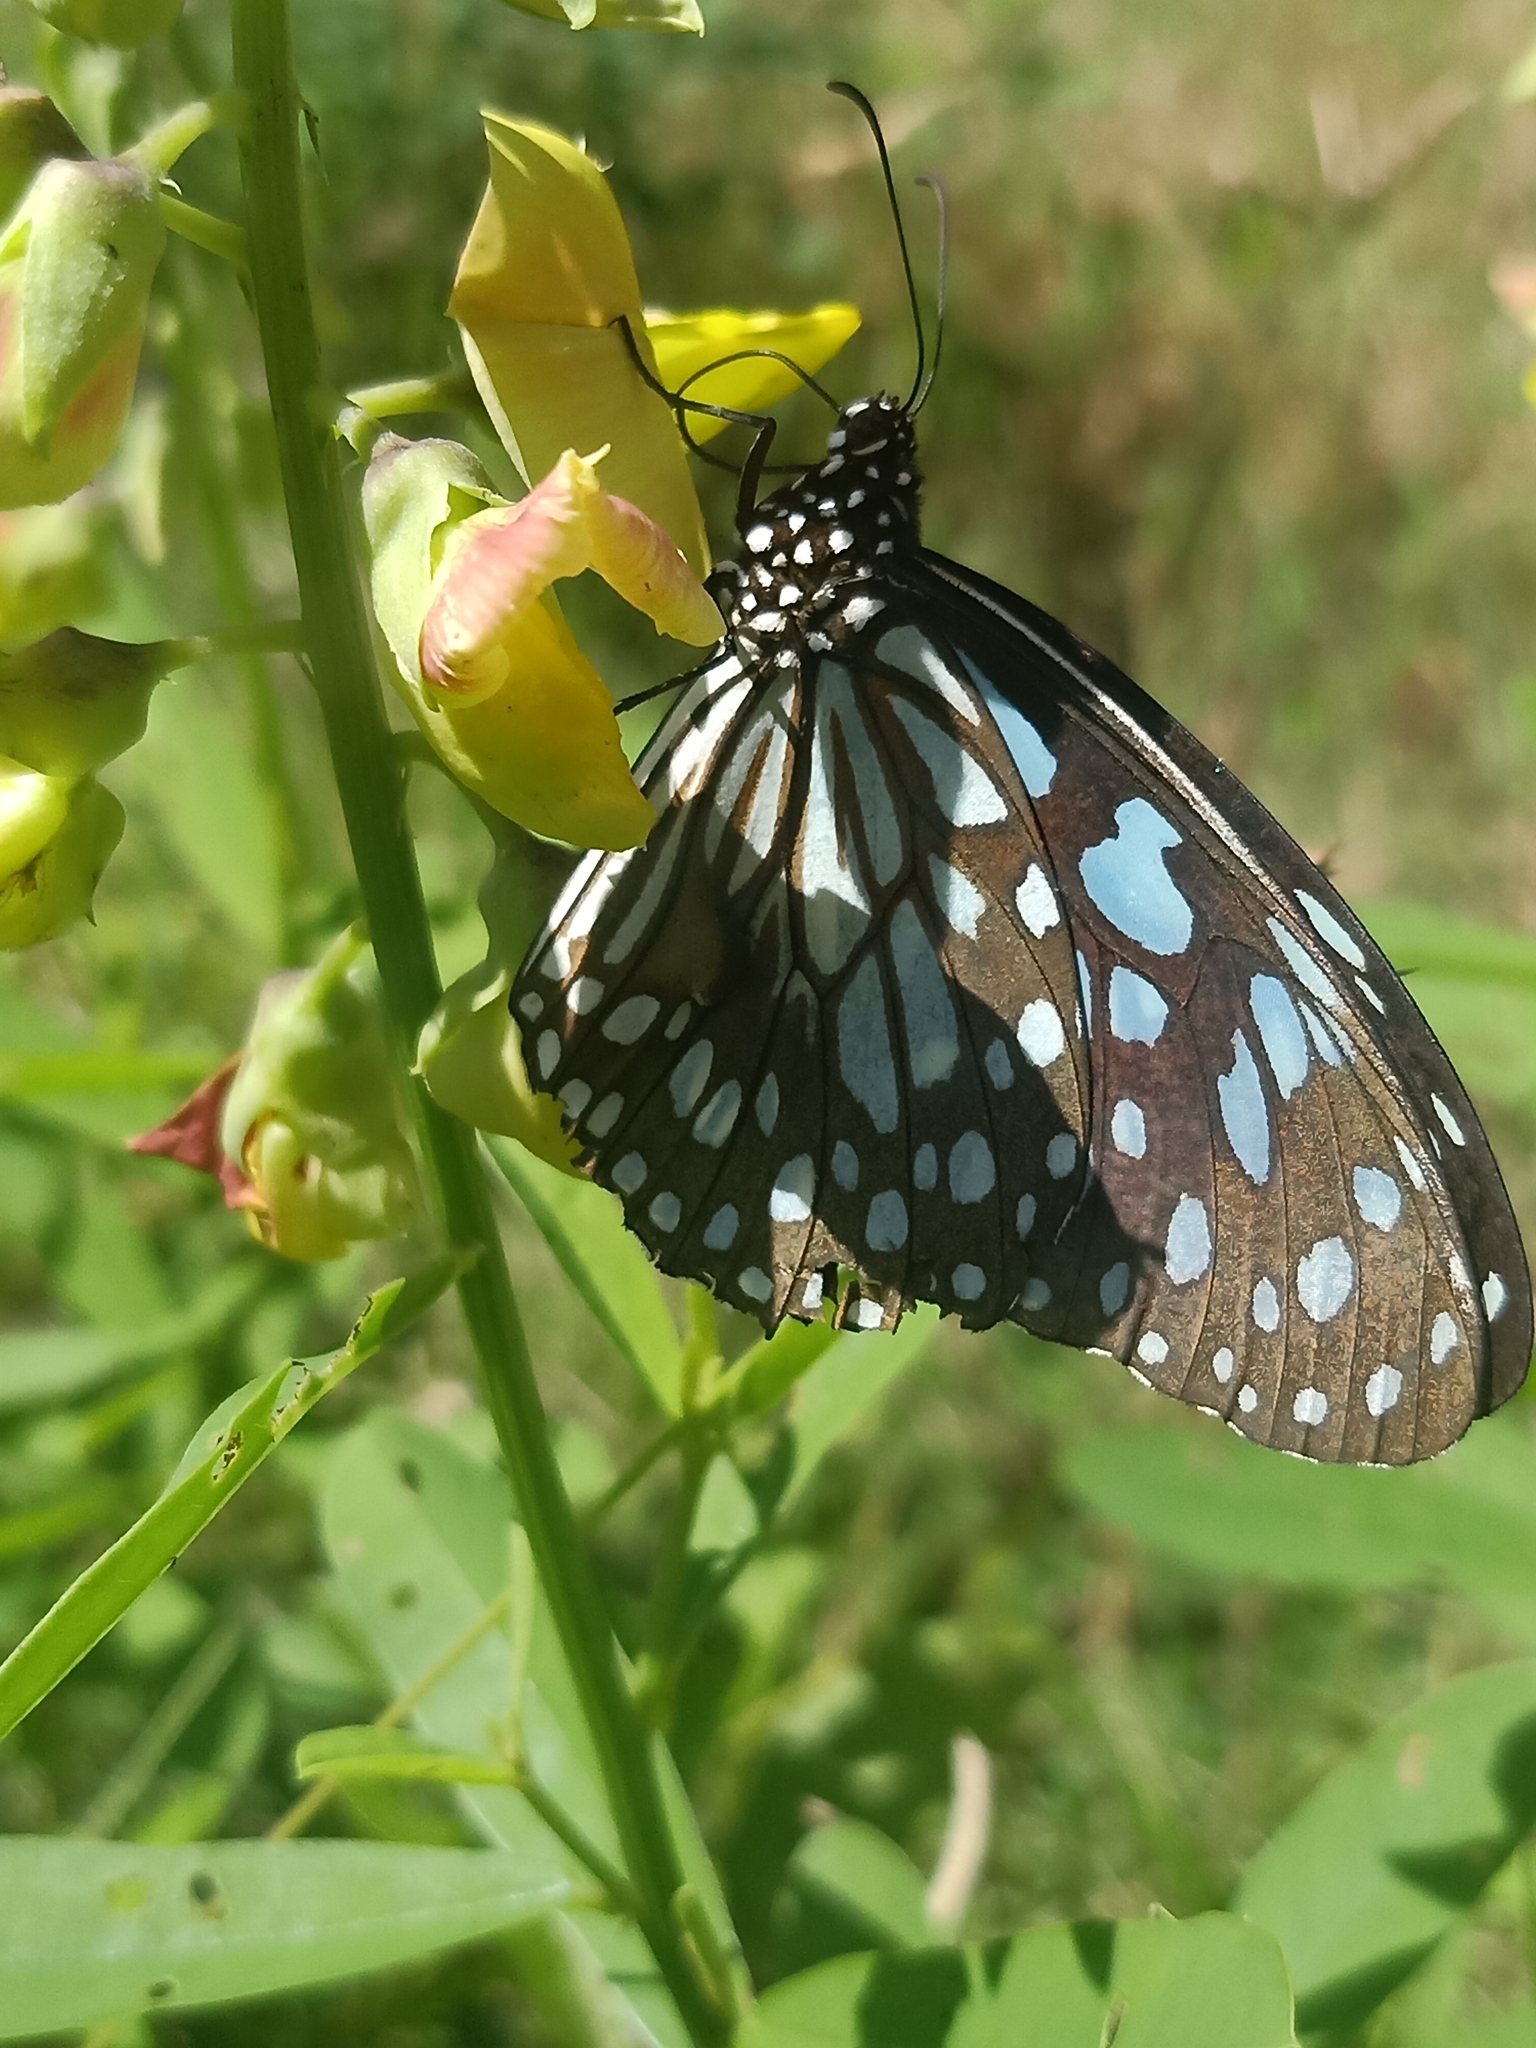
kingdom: Animalia
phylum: Arthropoda
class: Insecta
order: Lepidoptera
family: Nymphalidae
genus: Tirumala
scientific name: Tirumala limniace
